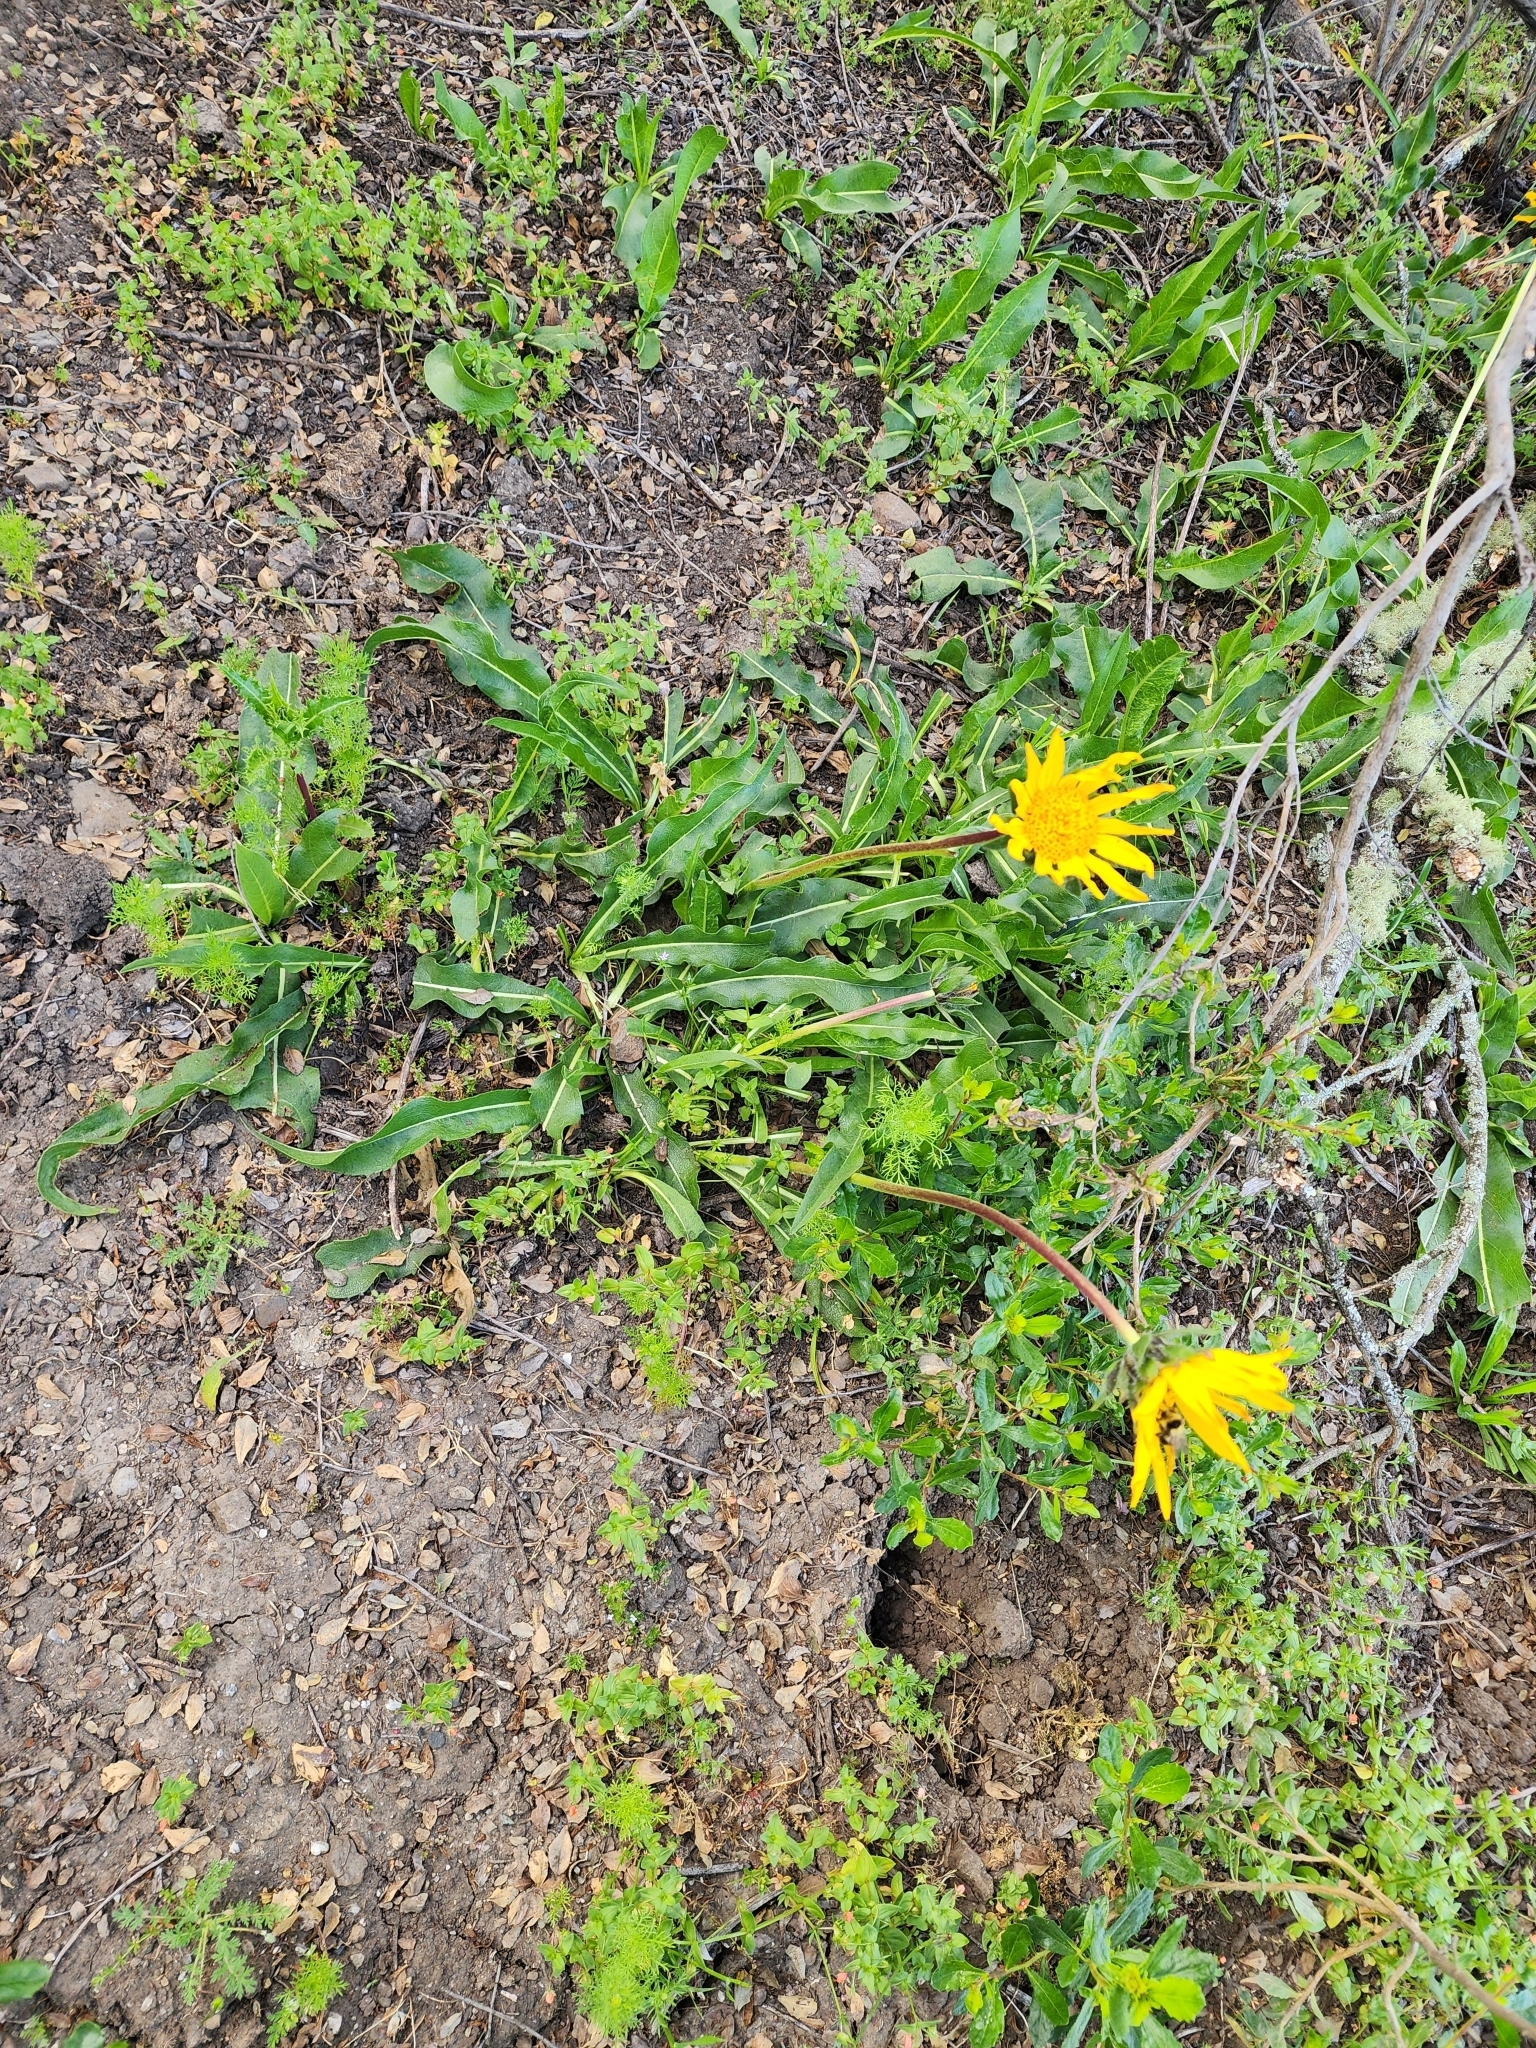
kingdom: Plantae
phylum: Tracheophyta
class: Magnoliopsida
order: Asterales
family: Asteraceae
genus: Wyethia
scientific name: Wyethia angustifolia
